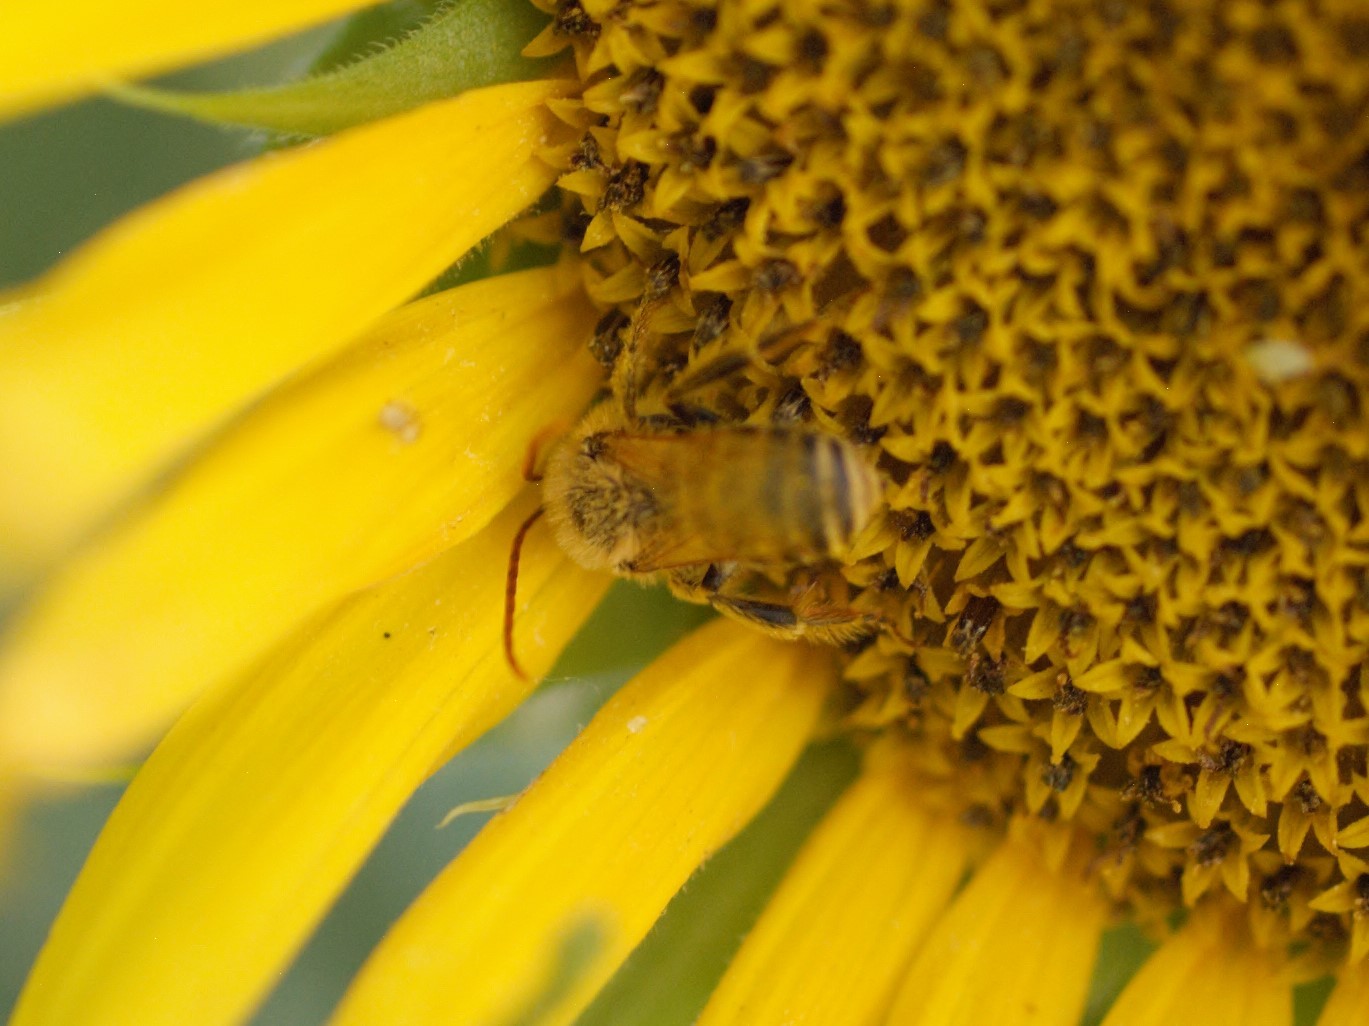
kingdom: Animalia
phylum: Arthropoda
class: Insecta
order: Hymenoptera
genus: Eumelissodes
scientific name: Eumelissodes
